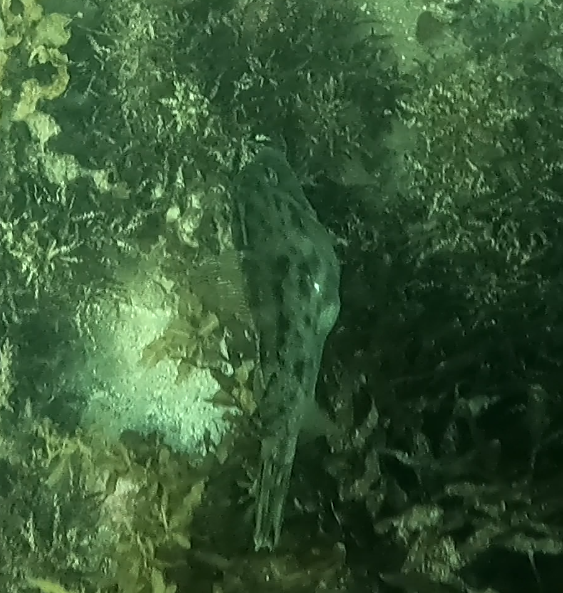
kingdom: Animalia
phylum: Chordata
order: Tetraodontiformes
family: Monacanthidae
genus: Scobinichthys
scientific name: Scobinichthys granulatus
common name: Rough leatherjacket
